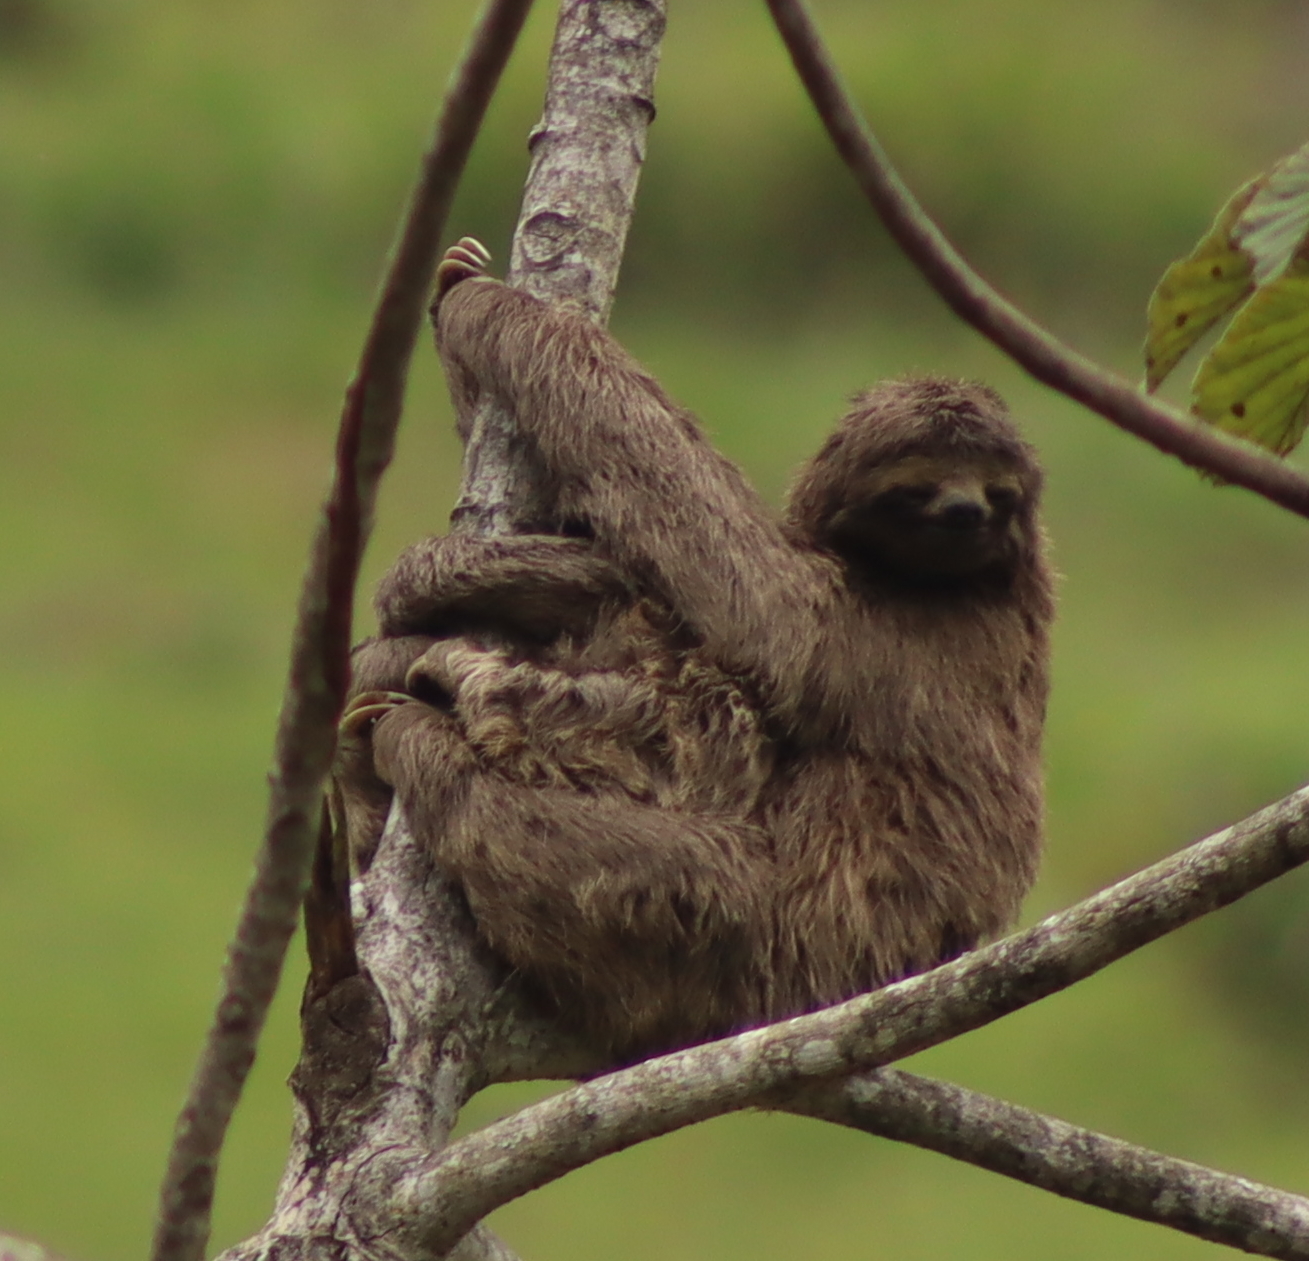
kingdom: Animalia
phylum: Chordata
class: Mammalia
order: Pilosa
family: Bradypodidae
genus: Bradypus
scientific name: Bradypus variegatus
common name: Brown-throated three-toed sloth
